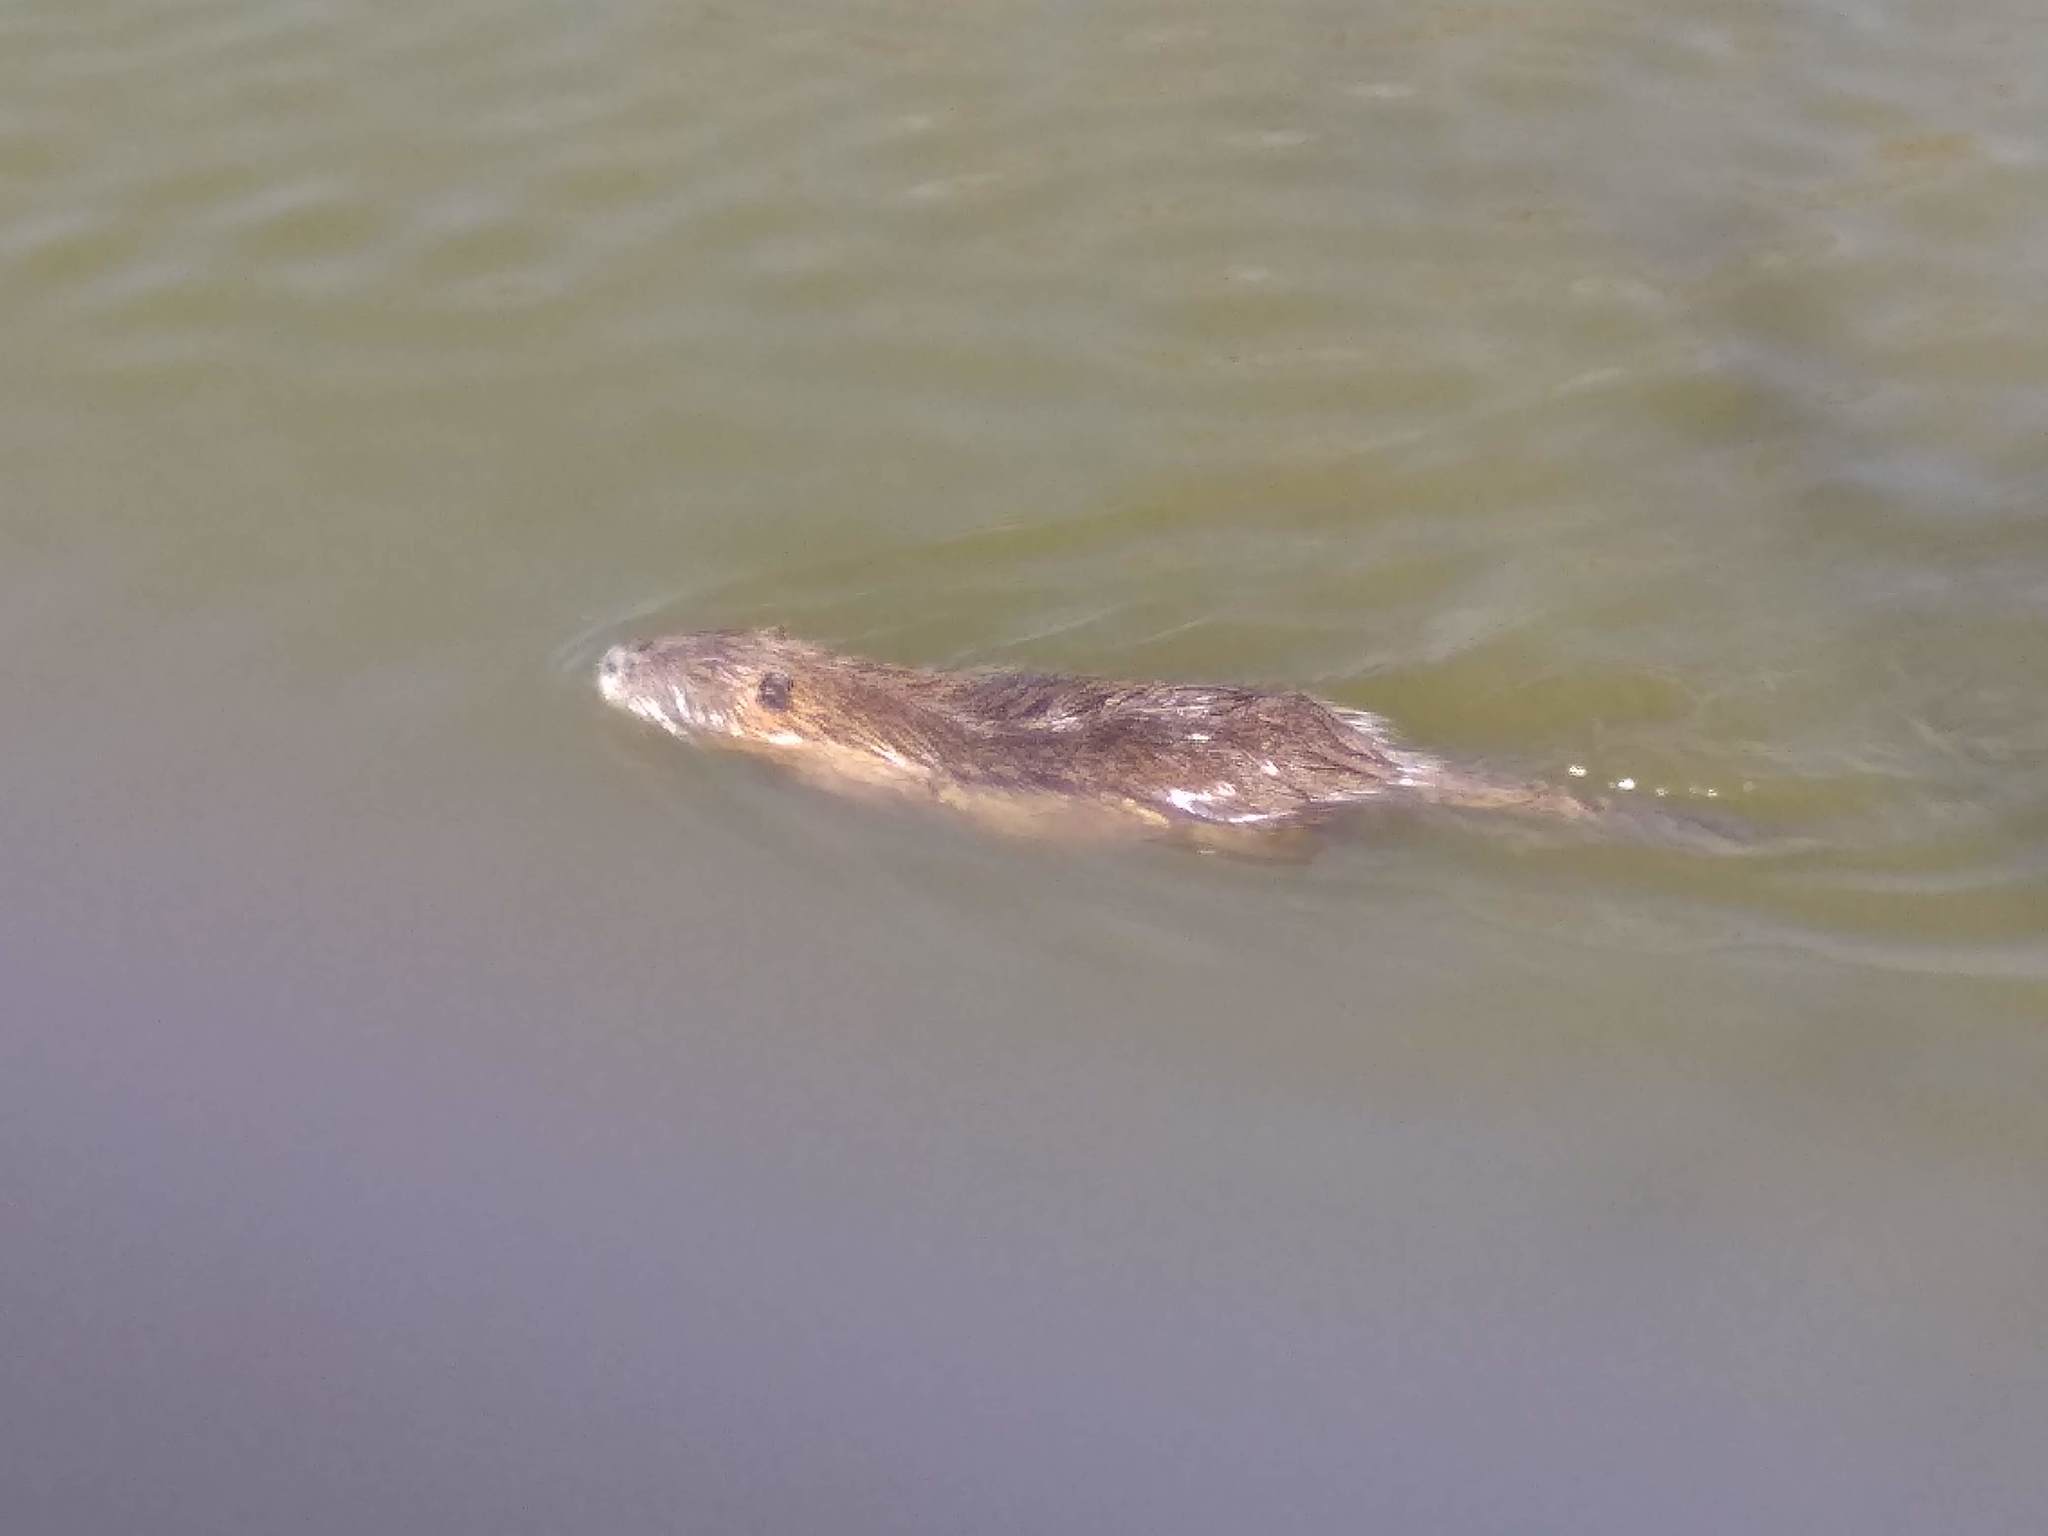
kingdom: Animalia
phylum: Chordata
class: Mammalia
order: Rodentia
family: Myocastoridae
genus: Myocastor
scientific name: Myocastor coypus
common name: Coypu
